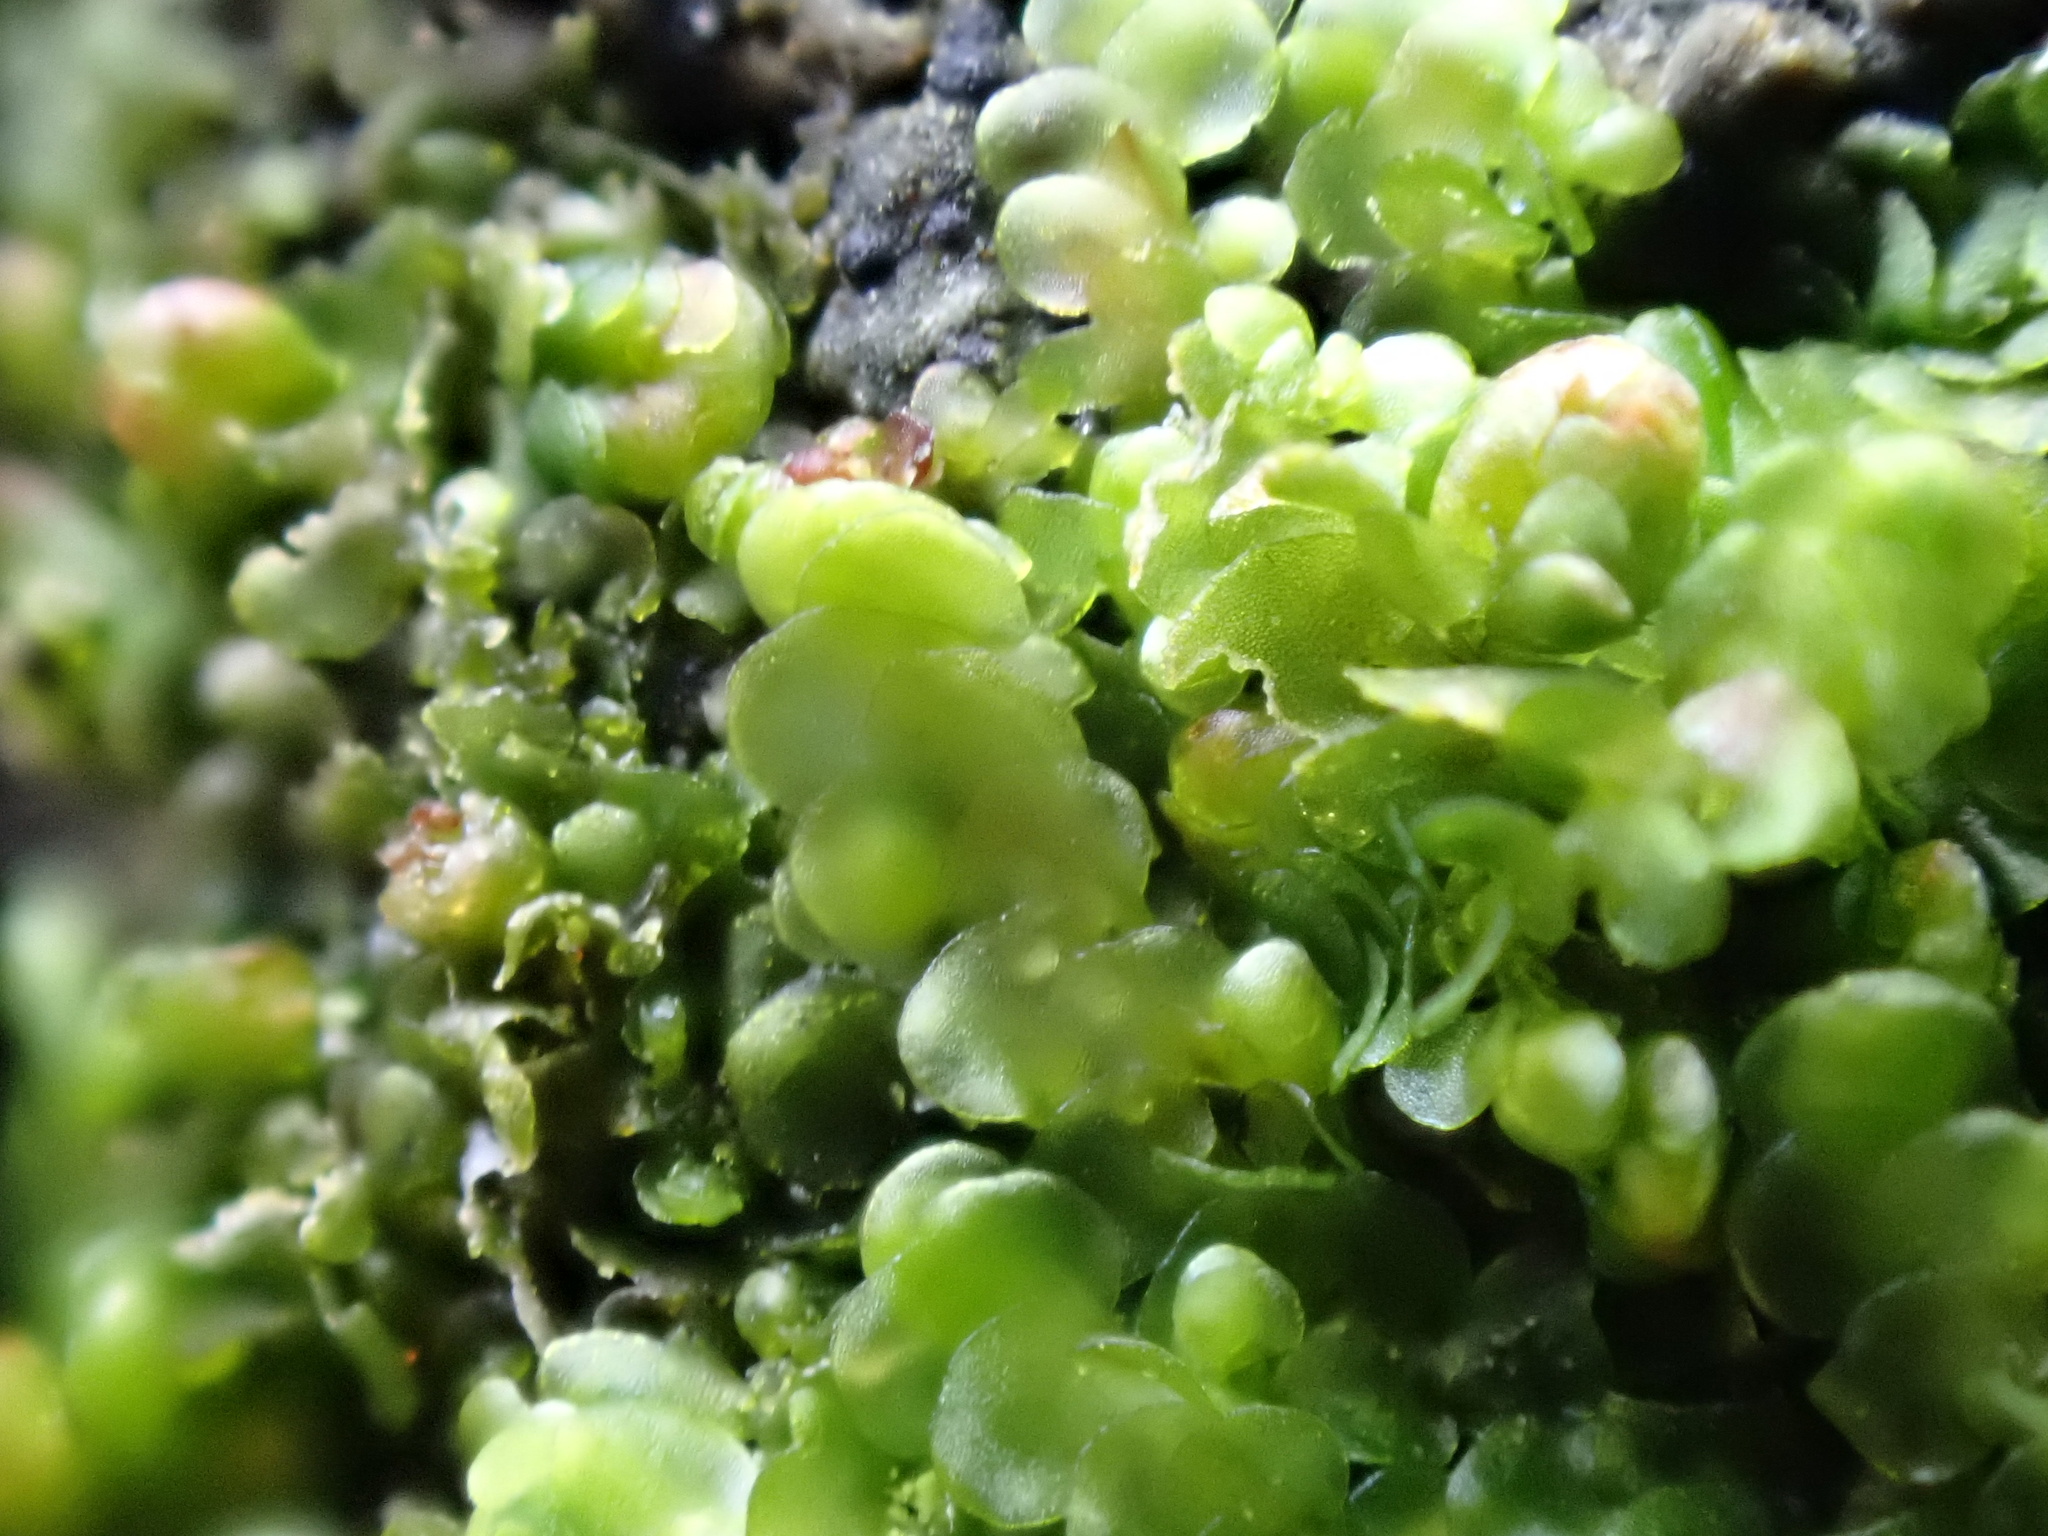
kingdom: Plantae
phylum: Marchantiophyta
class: Jungermanniopsida
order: Porellales
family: Frullaniaceae
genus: Frullania
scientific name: Frullania dilatata
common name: Dilated scalewort
